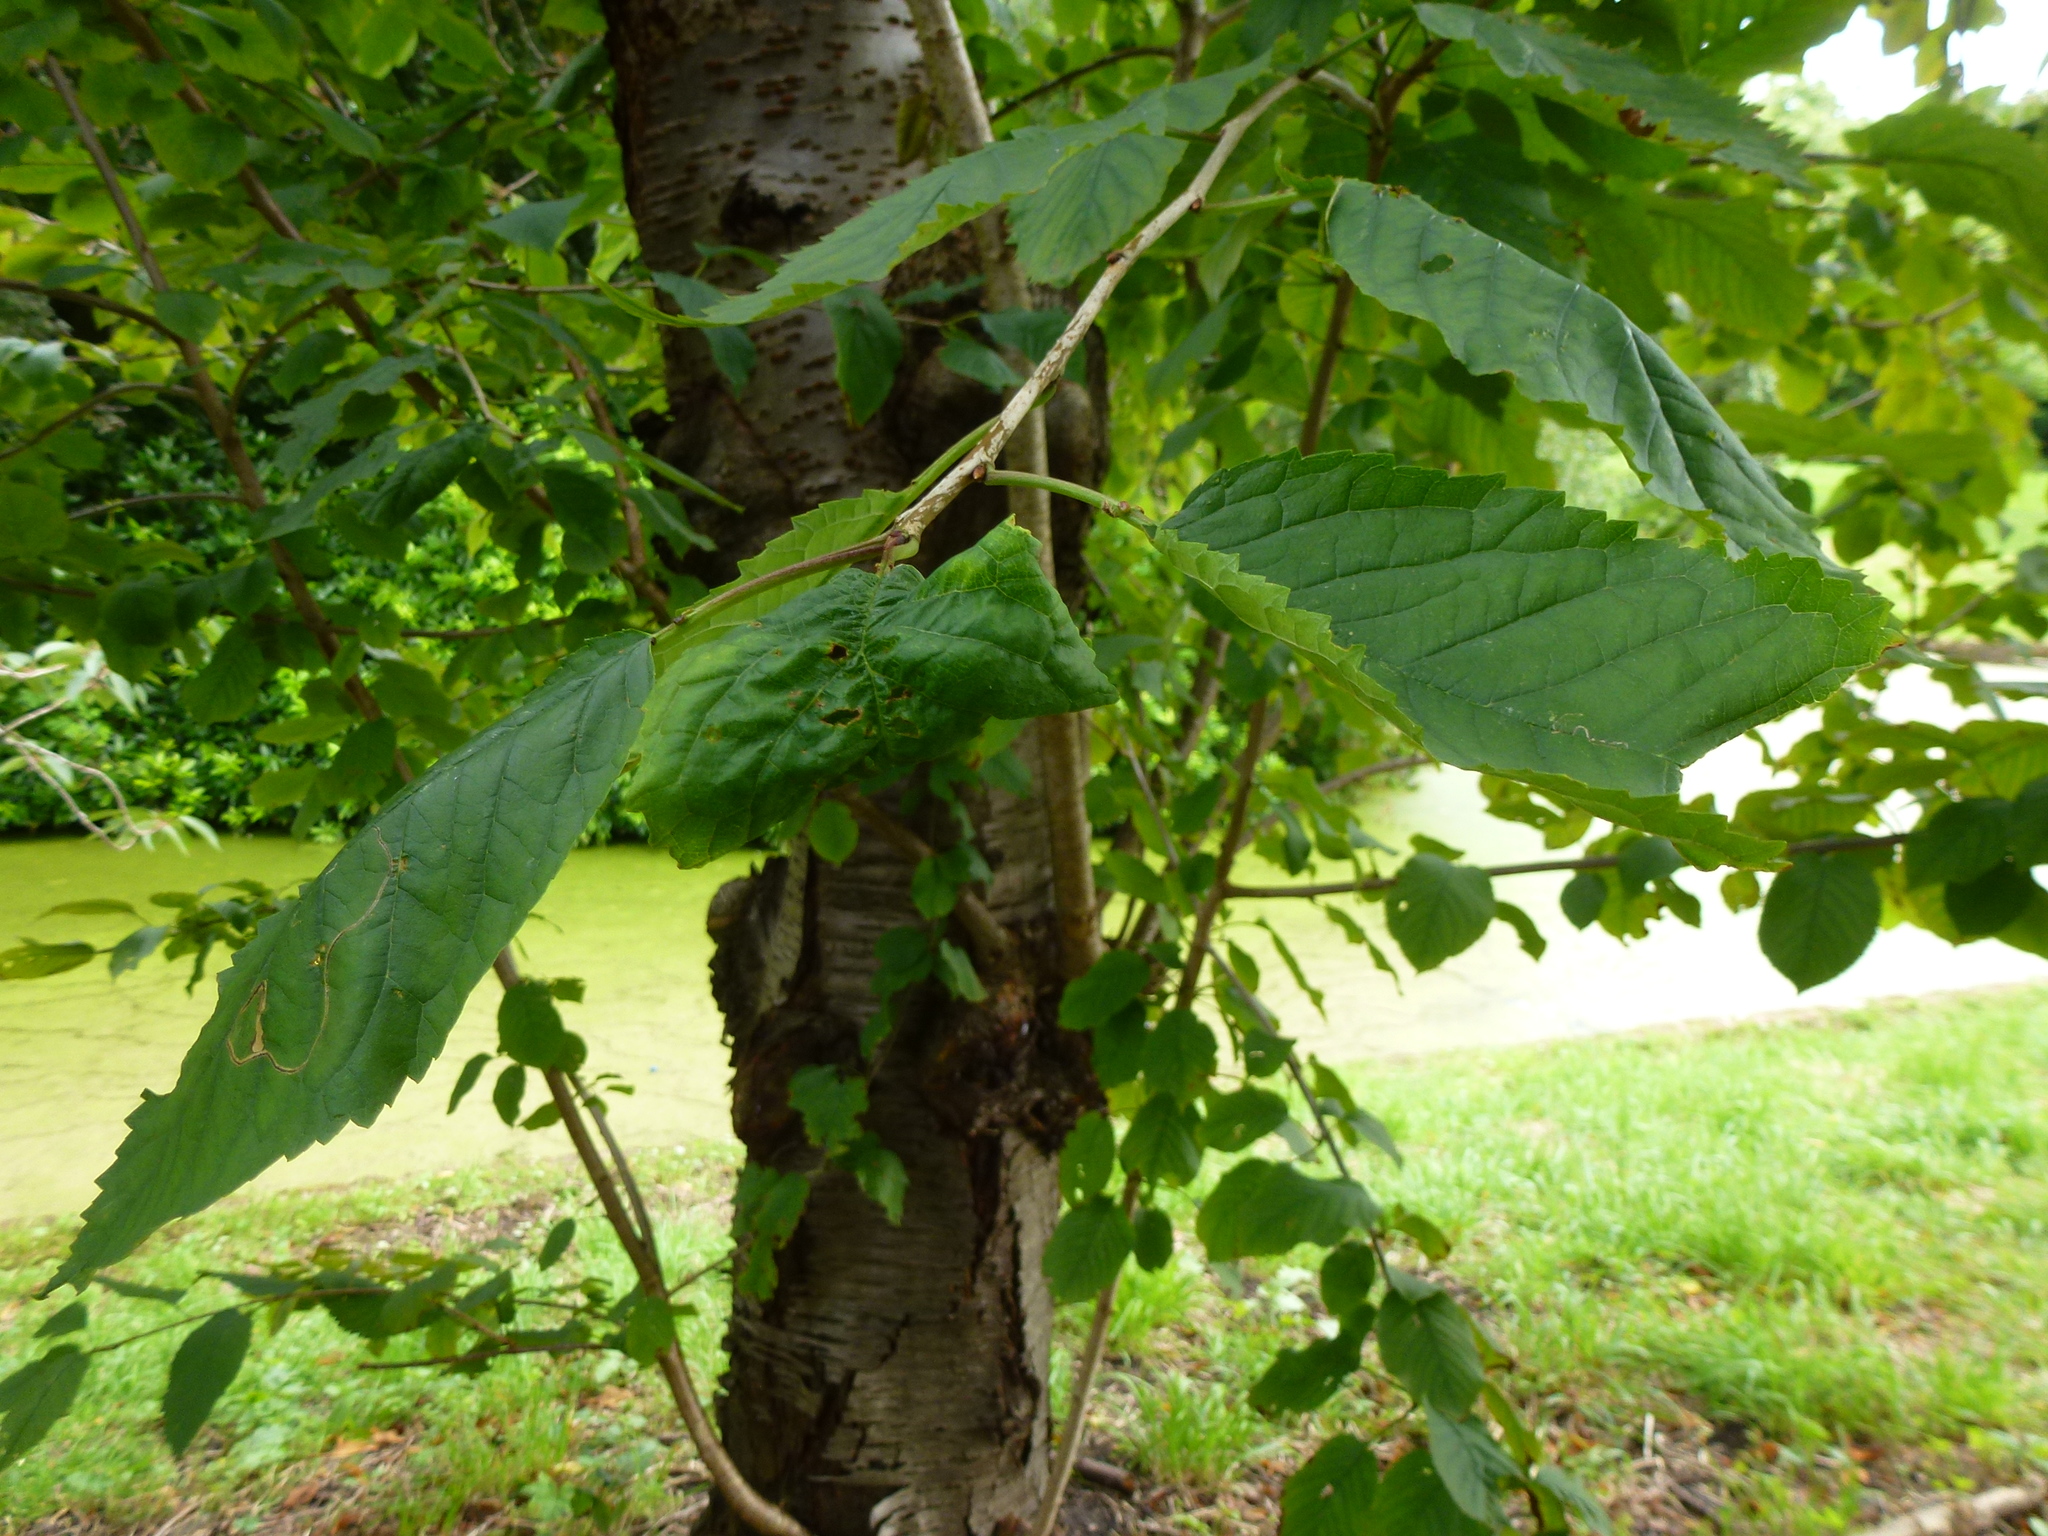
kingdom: Animalia
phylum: Arthropoda
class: Insecta
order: Hemiptera
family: Aphididae
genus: Myzus
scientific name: Myzus cerasi
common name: Black cherry aphid
